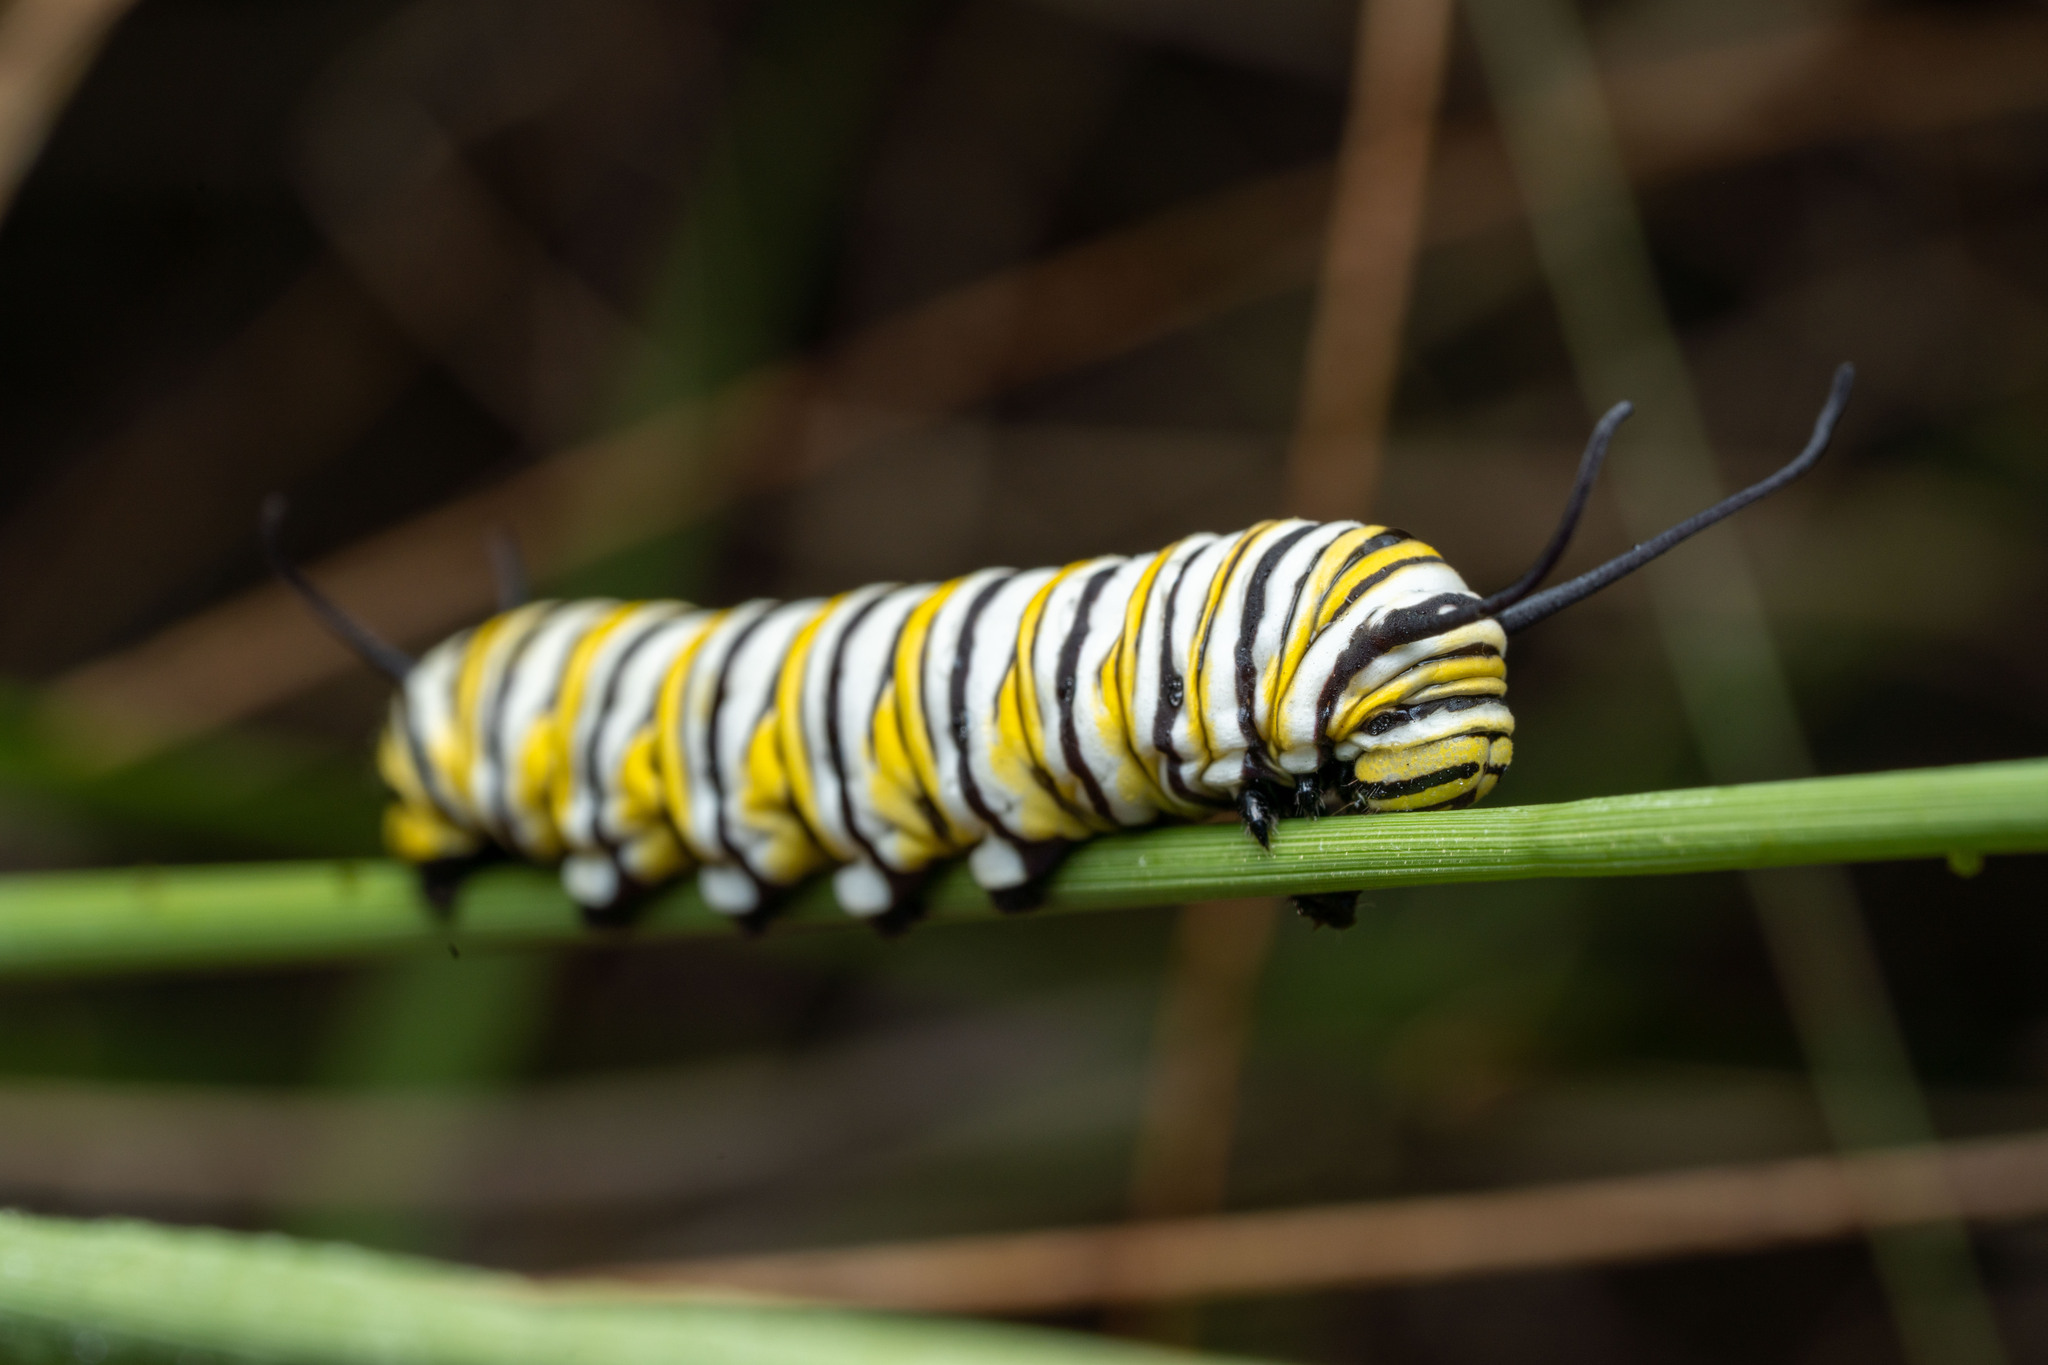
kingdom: Animalia
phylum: Arthropoda
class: Insecta
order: Lepidoptera
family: Nymphalidae
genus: Danaus
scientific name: Danaus plexippus
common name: Monarch
